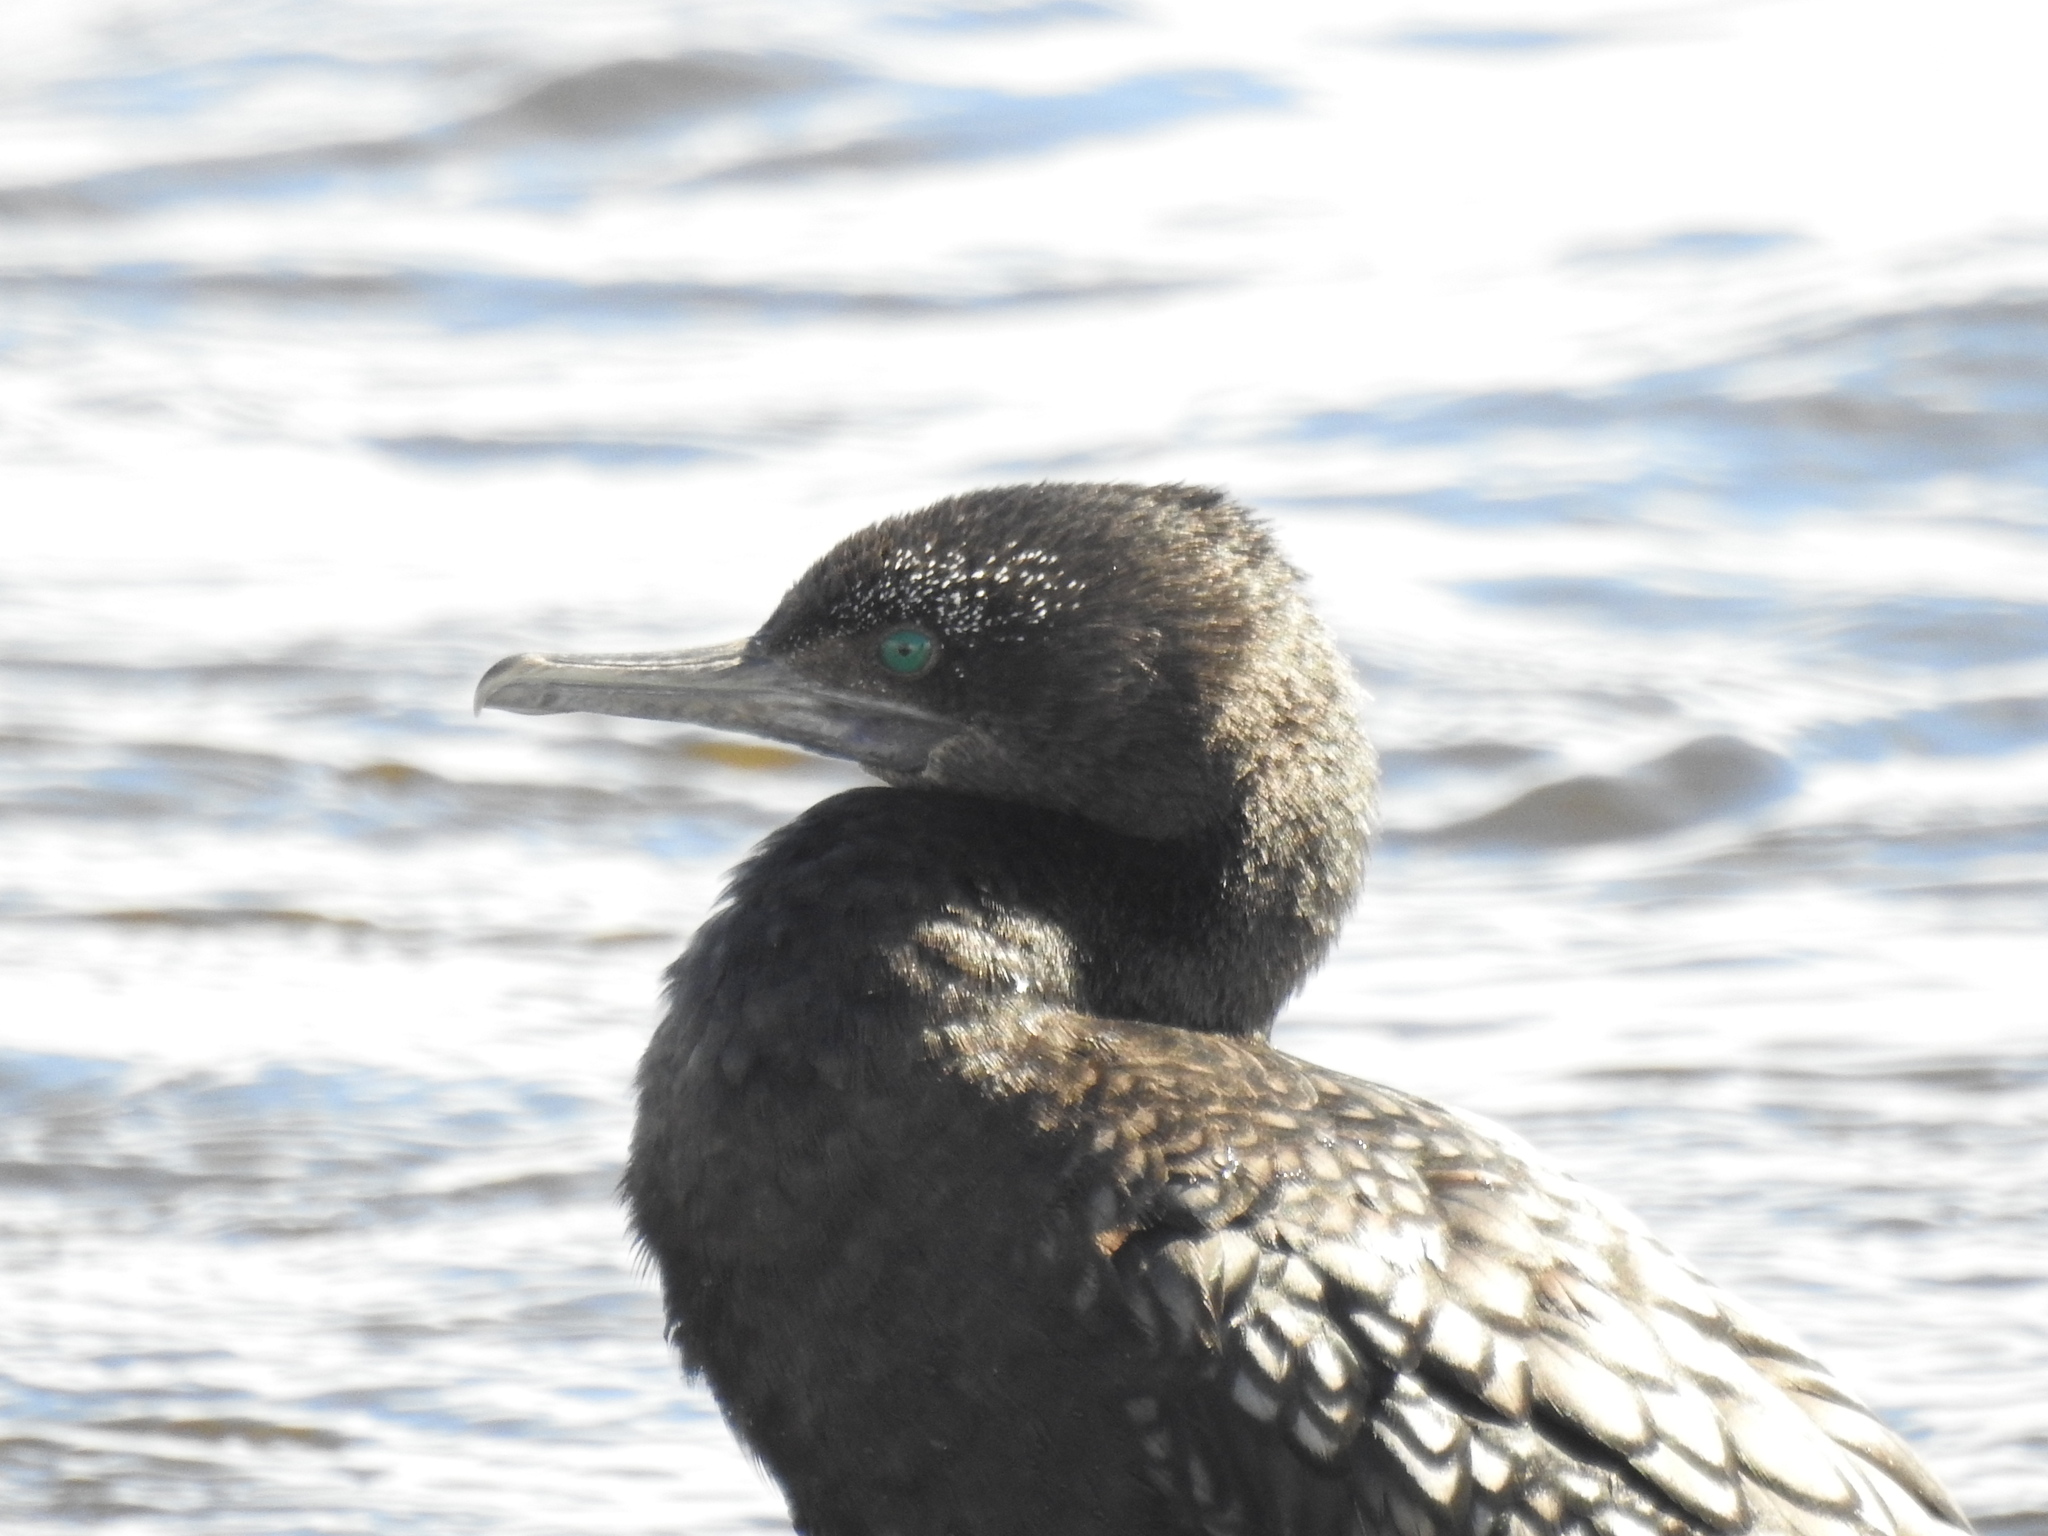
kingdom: Animalia
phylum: Chordata
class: Aves
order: Suliformes
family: Phalacrocoracidae
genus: Phalacrocorax
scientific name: Phalacrocorax sulcirostris
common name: Little black cormorant
